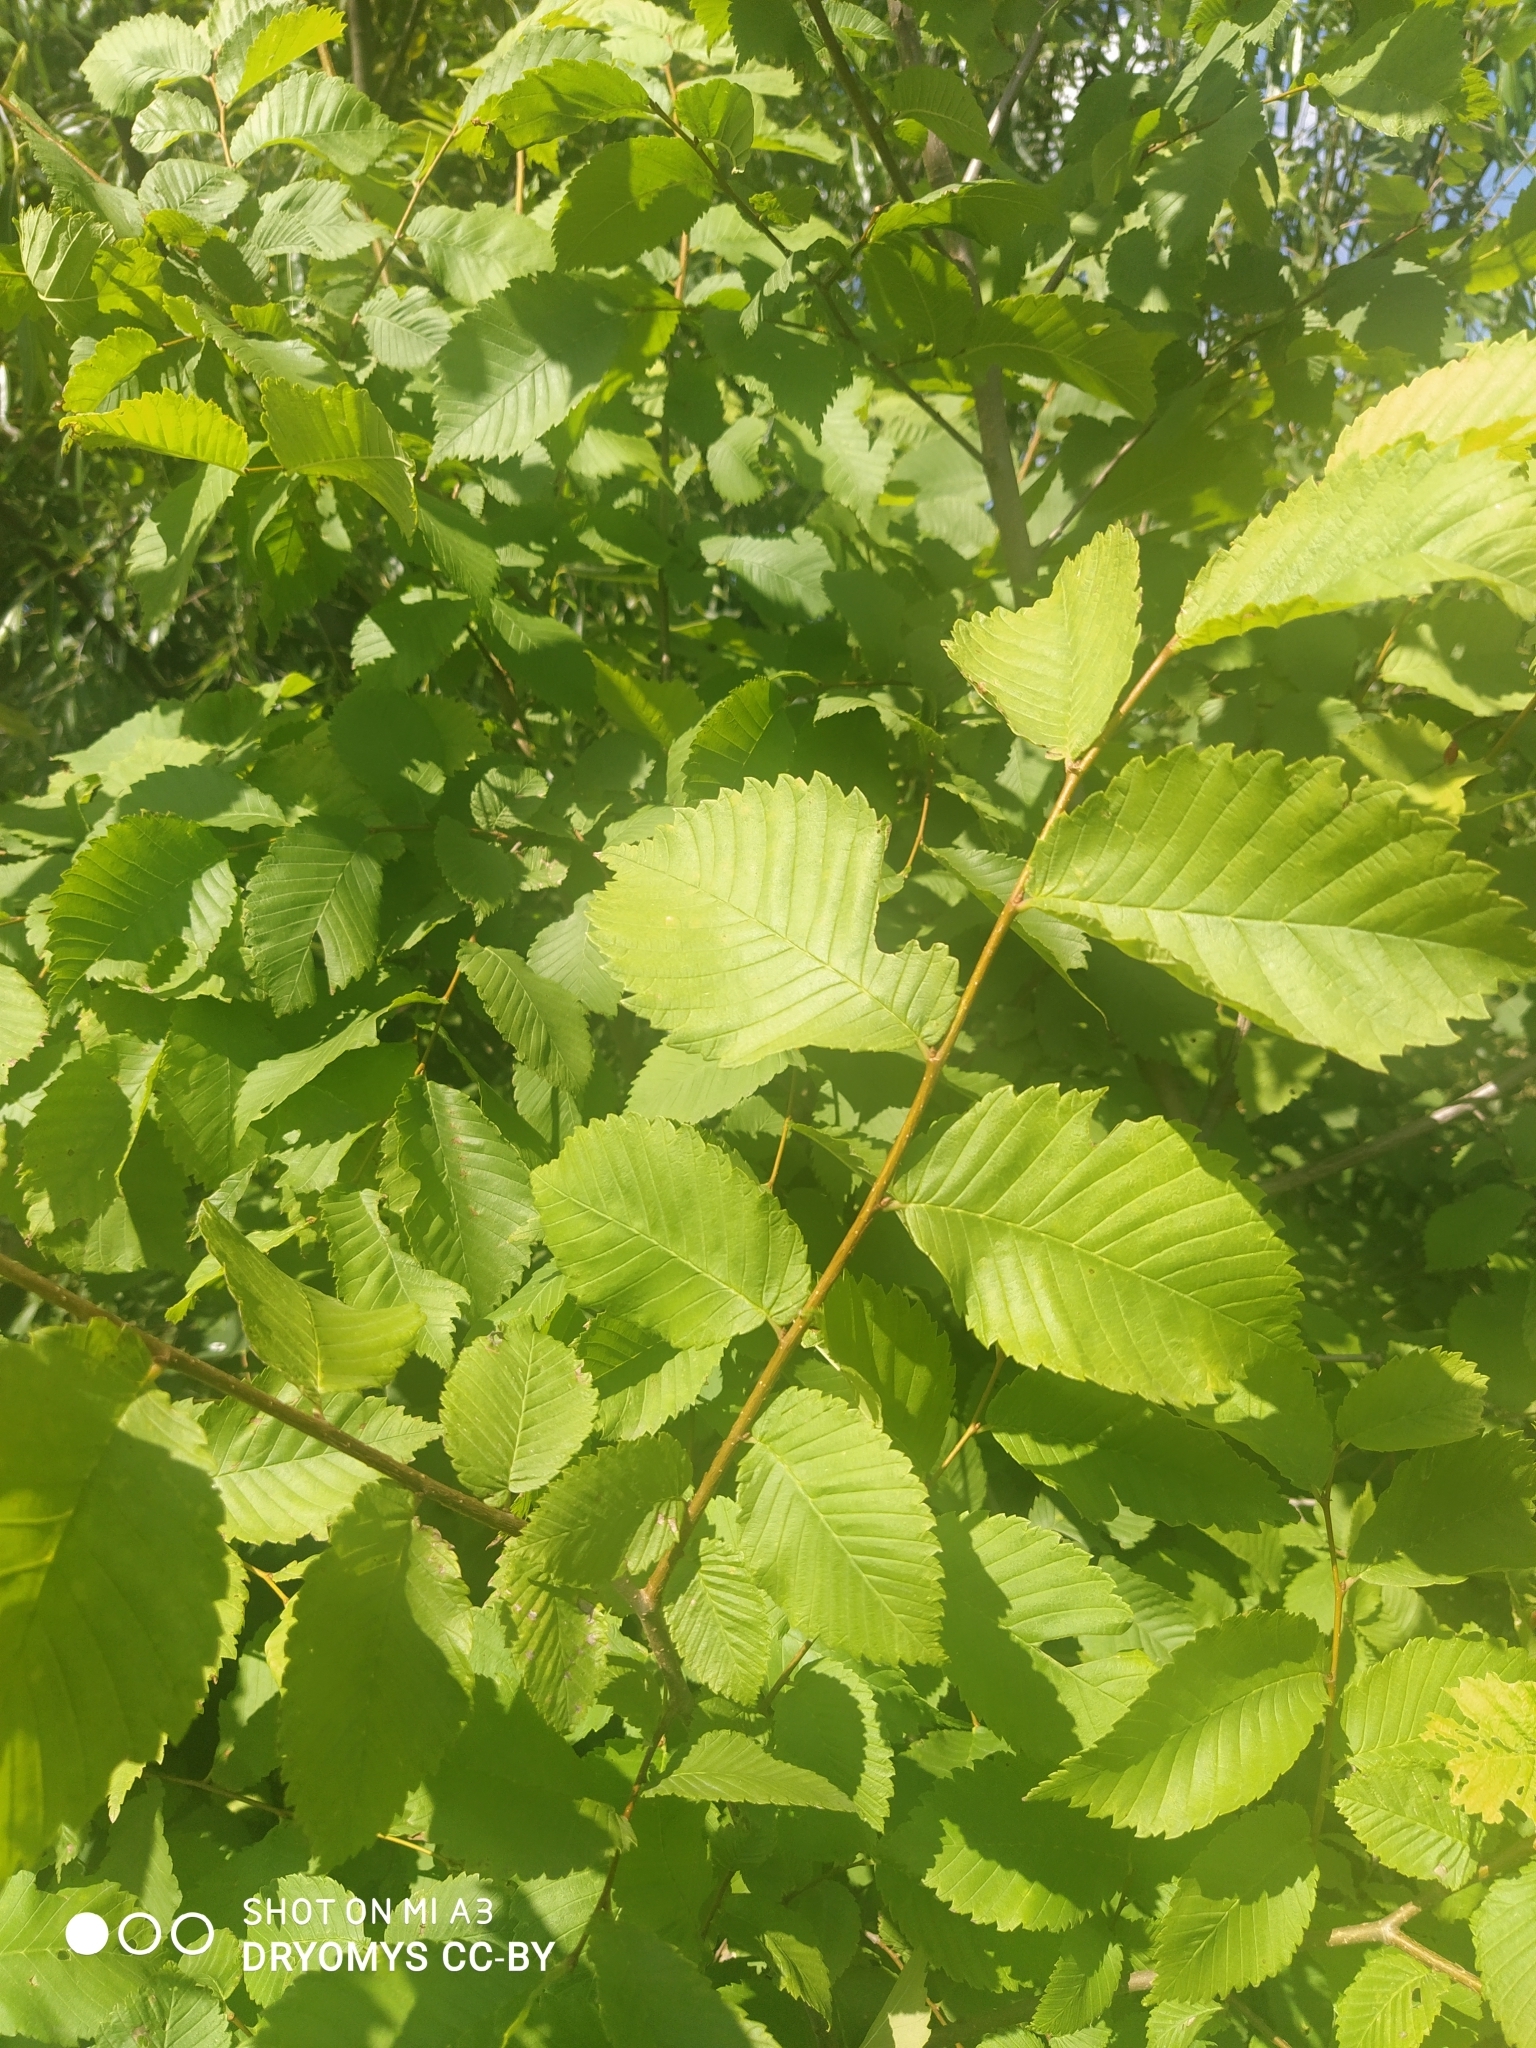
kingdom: Plantae
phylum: Tracheophyta
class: Magnoliopsida
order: Rosales
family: Ulmaceae
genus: Ulmus
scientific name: Ulmus laevis
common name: European white-elm
